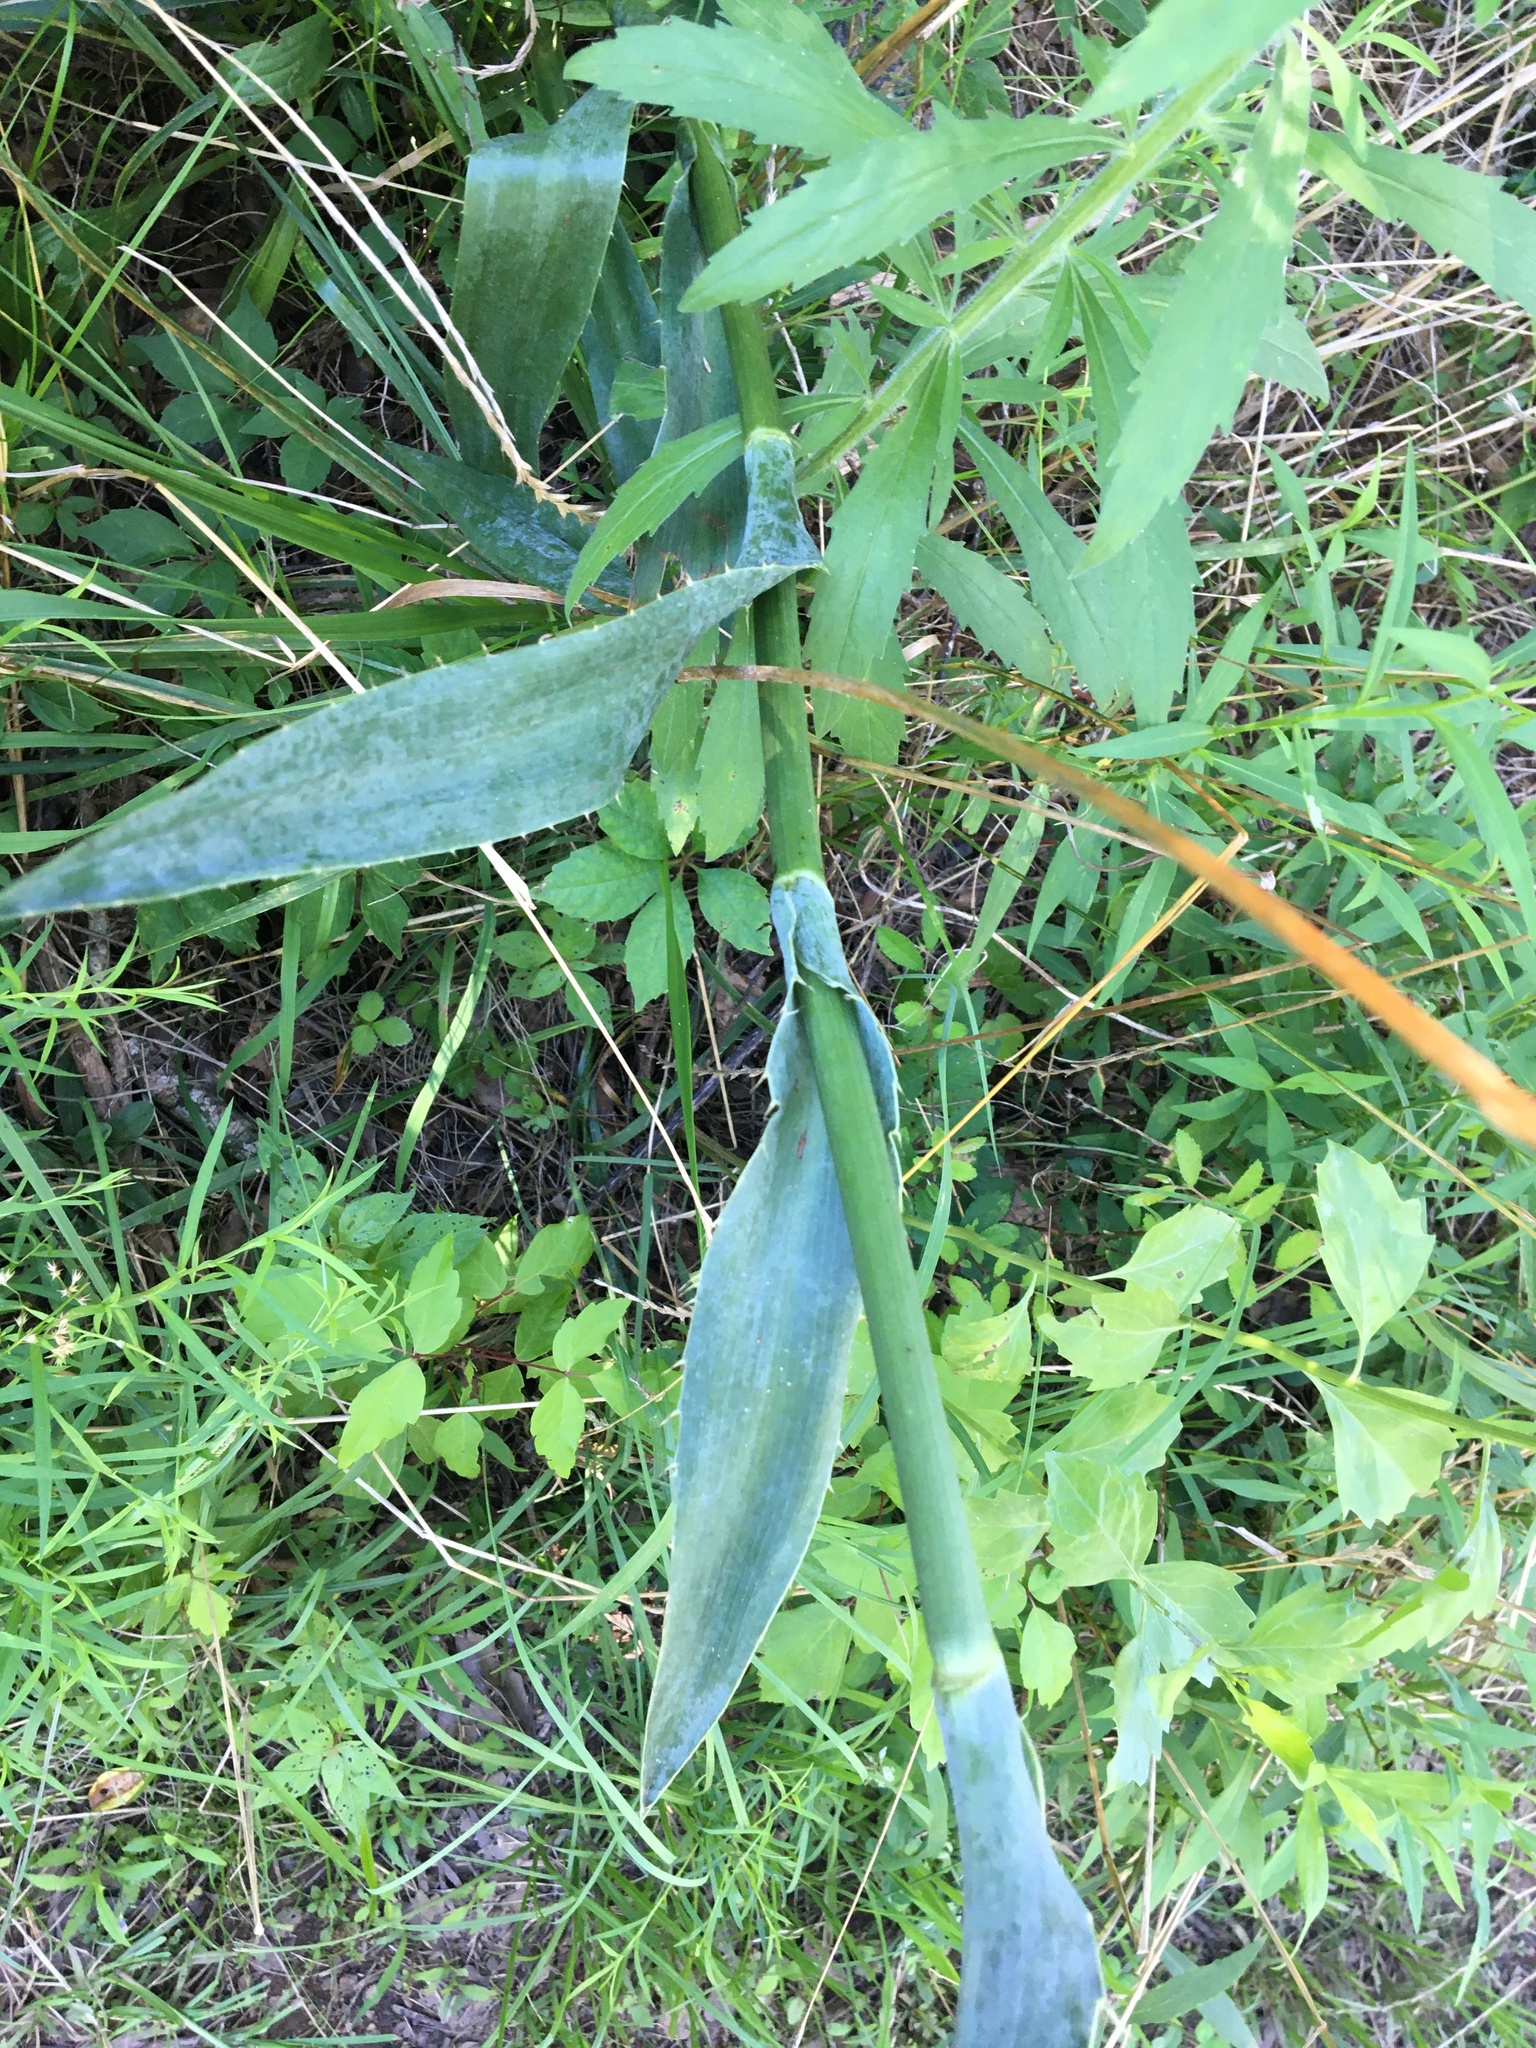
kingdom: Plantae
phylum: Tracheophyta
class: Magnoliopsida
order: Apiales
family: Apiaceae
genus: Eryngium
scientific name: Eryngium yuccifolium
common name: Button eryngo
